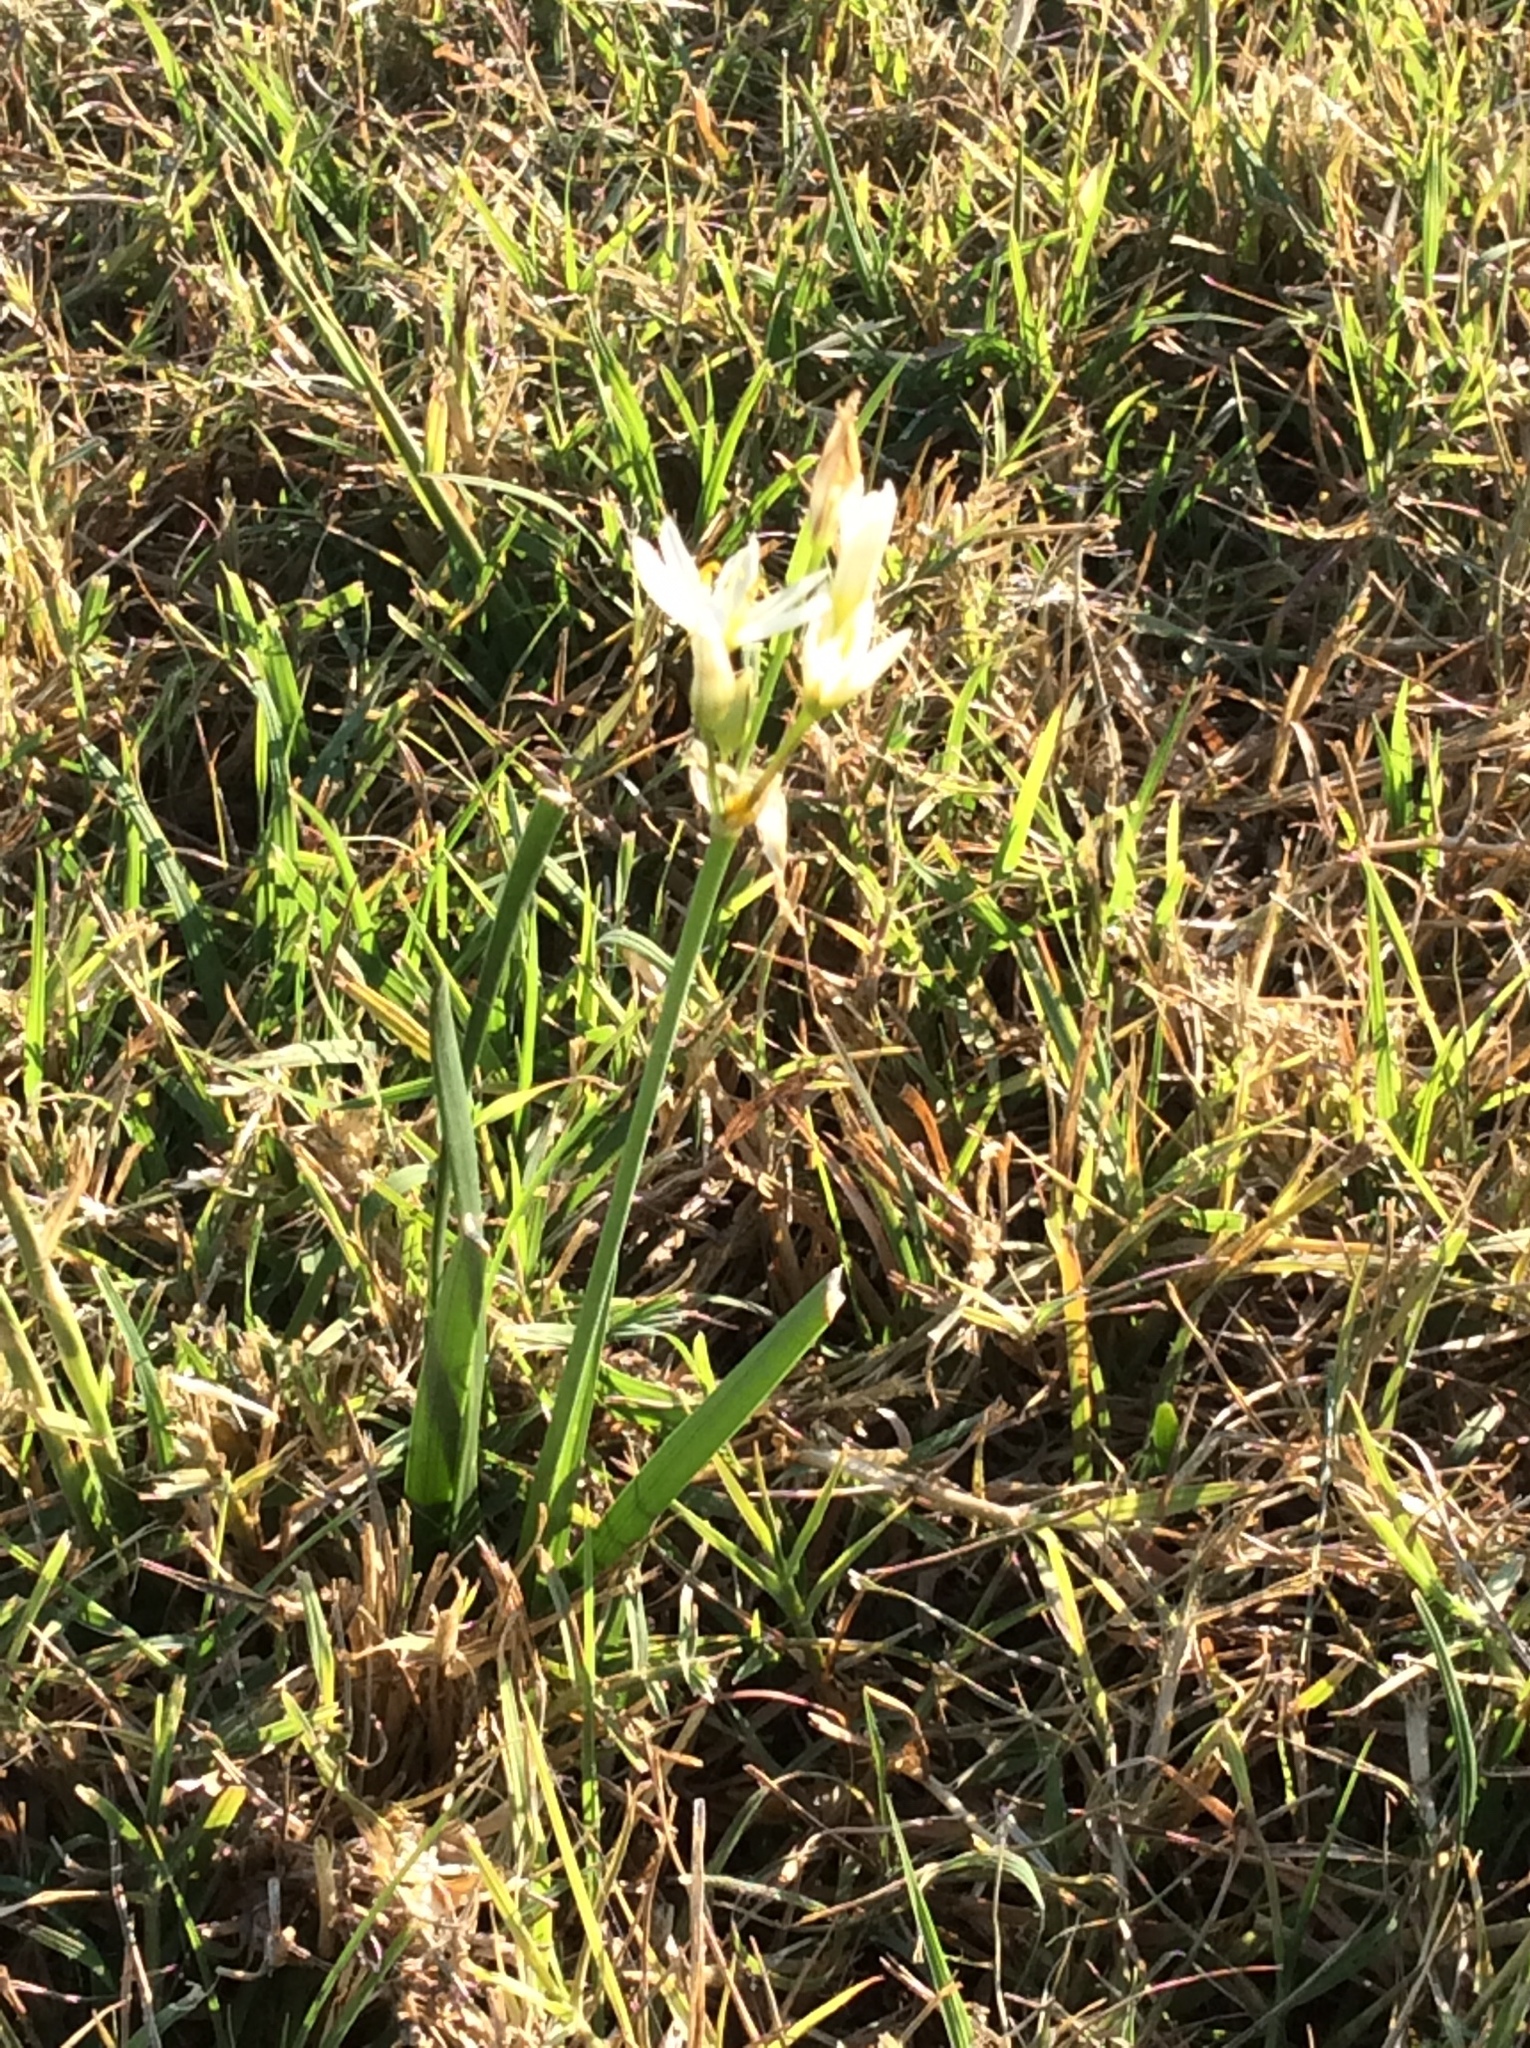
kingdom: Plantae
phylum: Tracheophyta
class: Liliopsida
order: Asparagales
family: Amaryllidaceae
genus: Nothoscordum
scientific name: Nothoscordum bivalve
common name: Crow-poison
